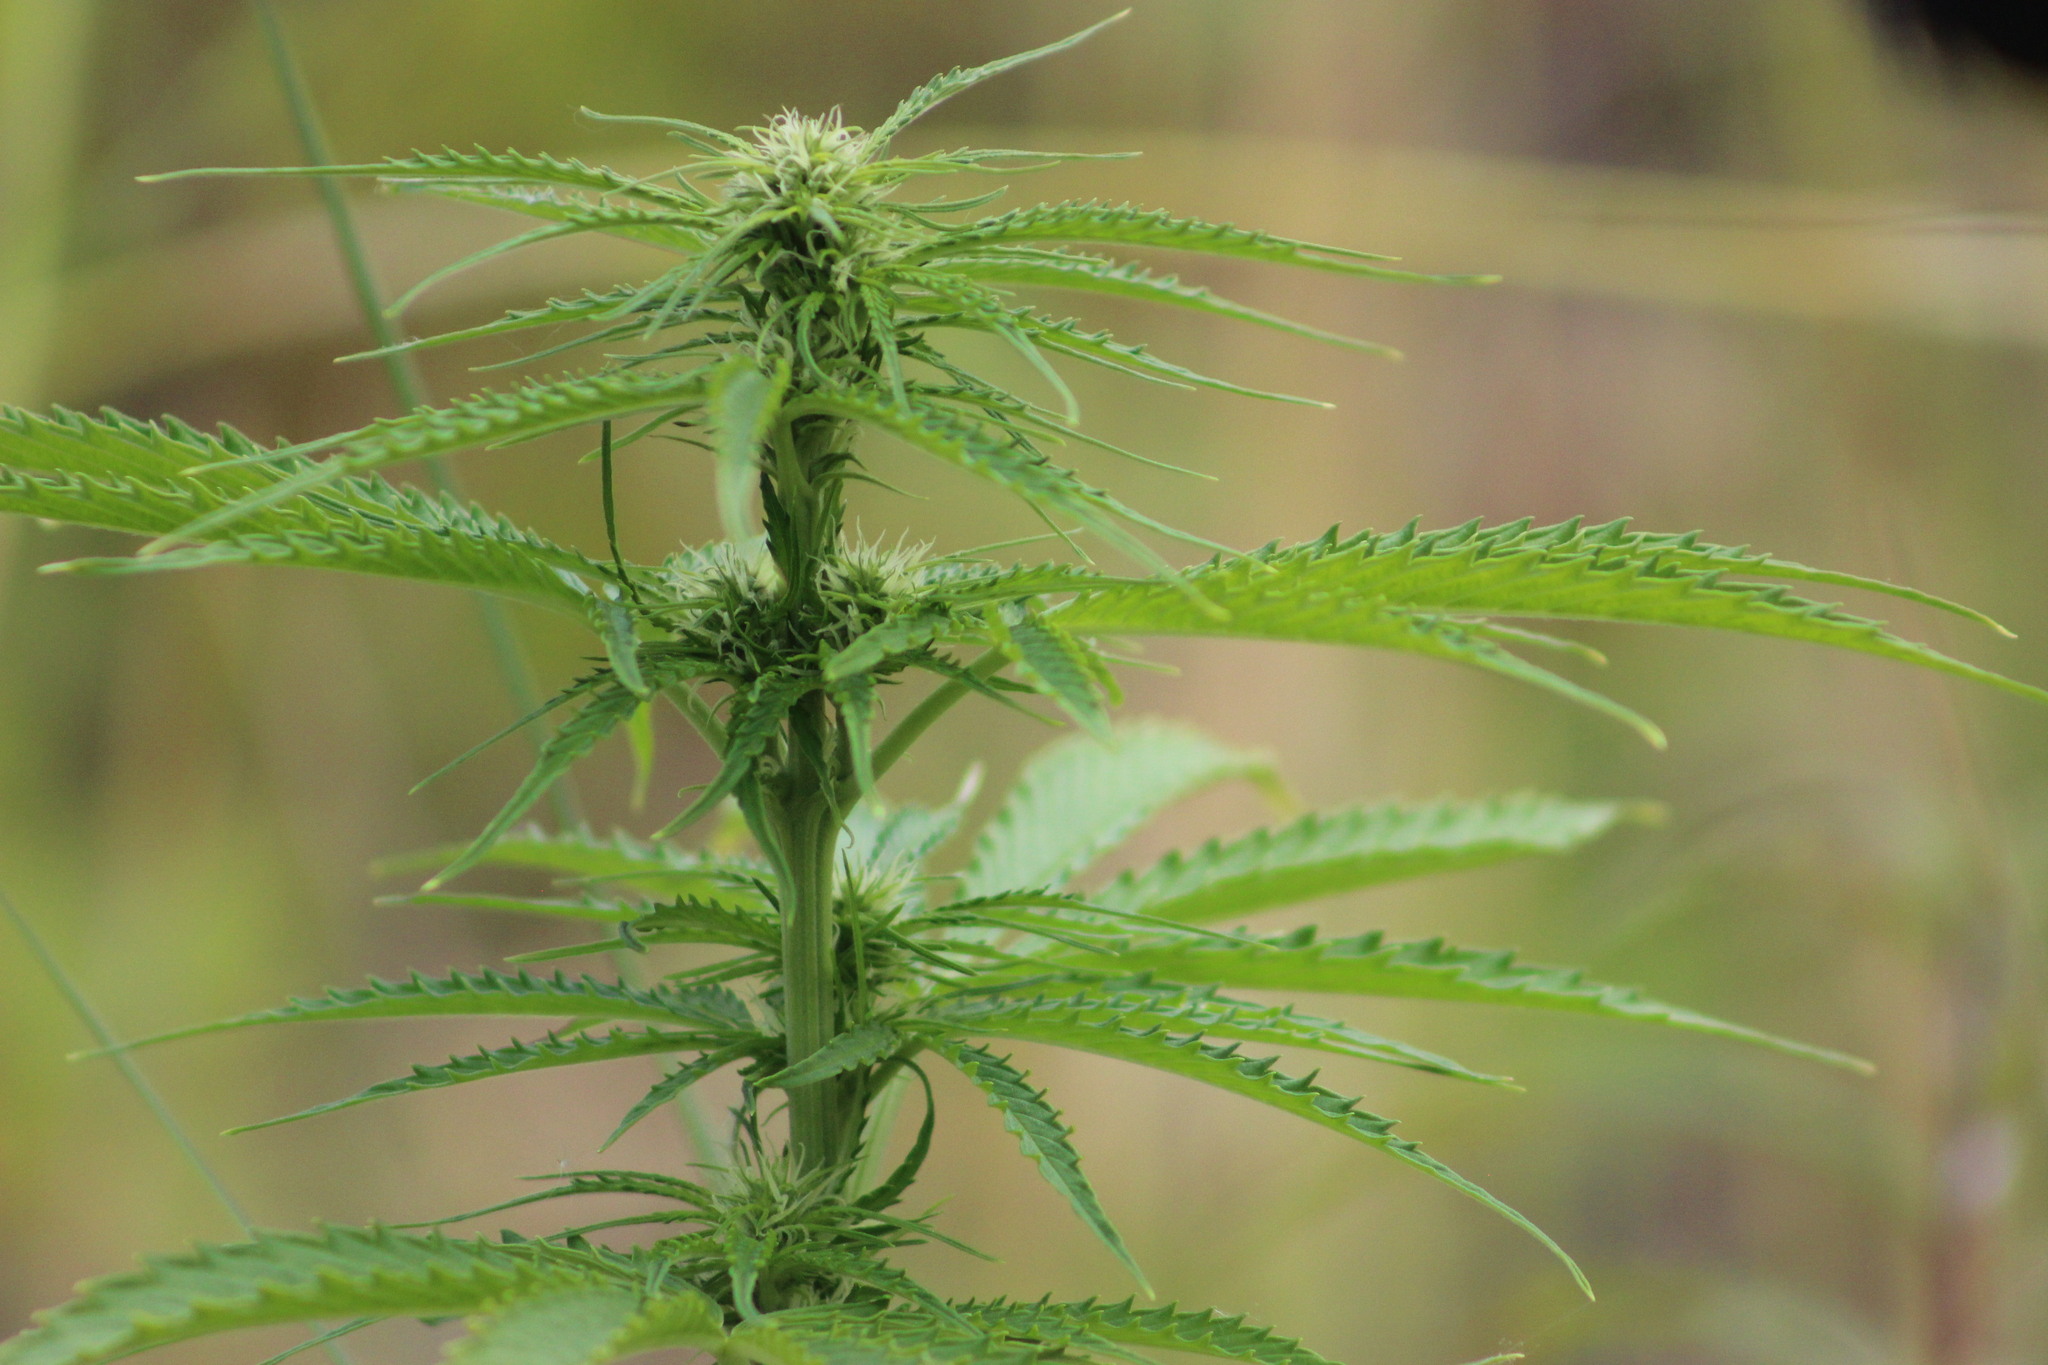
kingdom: Plantae
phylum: Tracheophyta
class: Magnoliopsida
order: Rosales
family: Cannabaceae
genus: Cannabis
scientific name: Cannabis sativa
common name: Hemp
